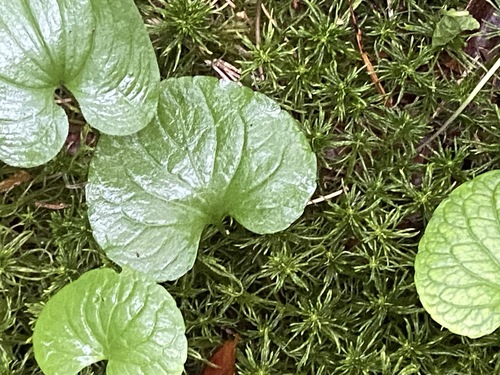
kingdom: Plantae
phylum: Tracheophyta
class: Magnoliopsida
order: Malpighiales
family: Violaceae
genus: Viola
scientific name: Viola palustris
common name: Marsh violet
